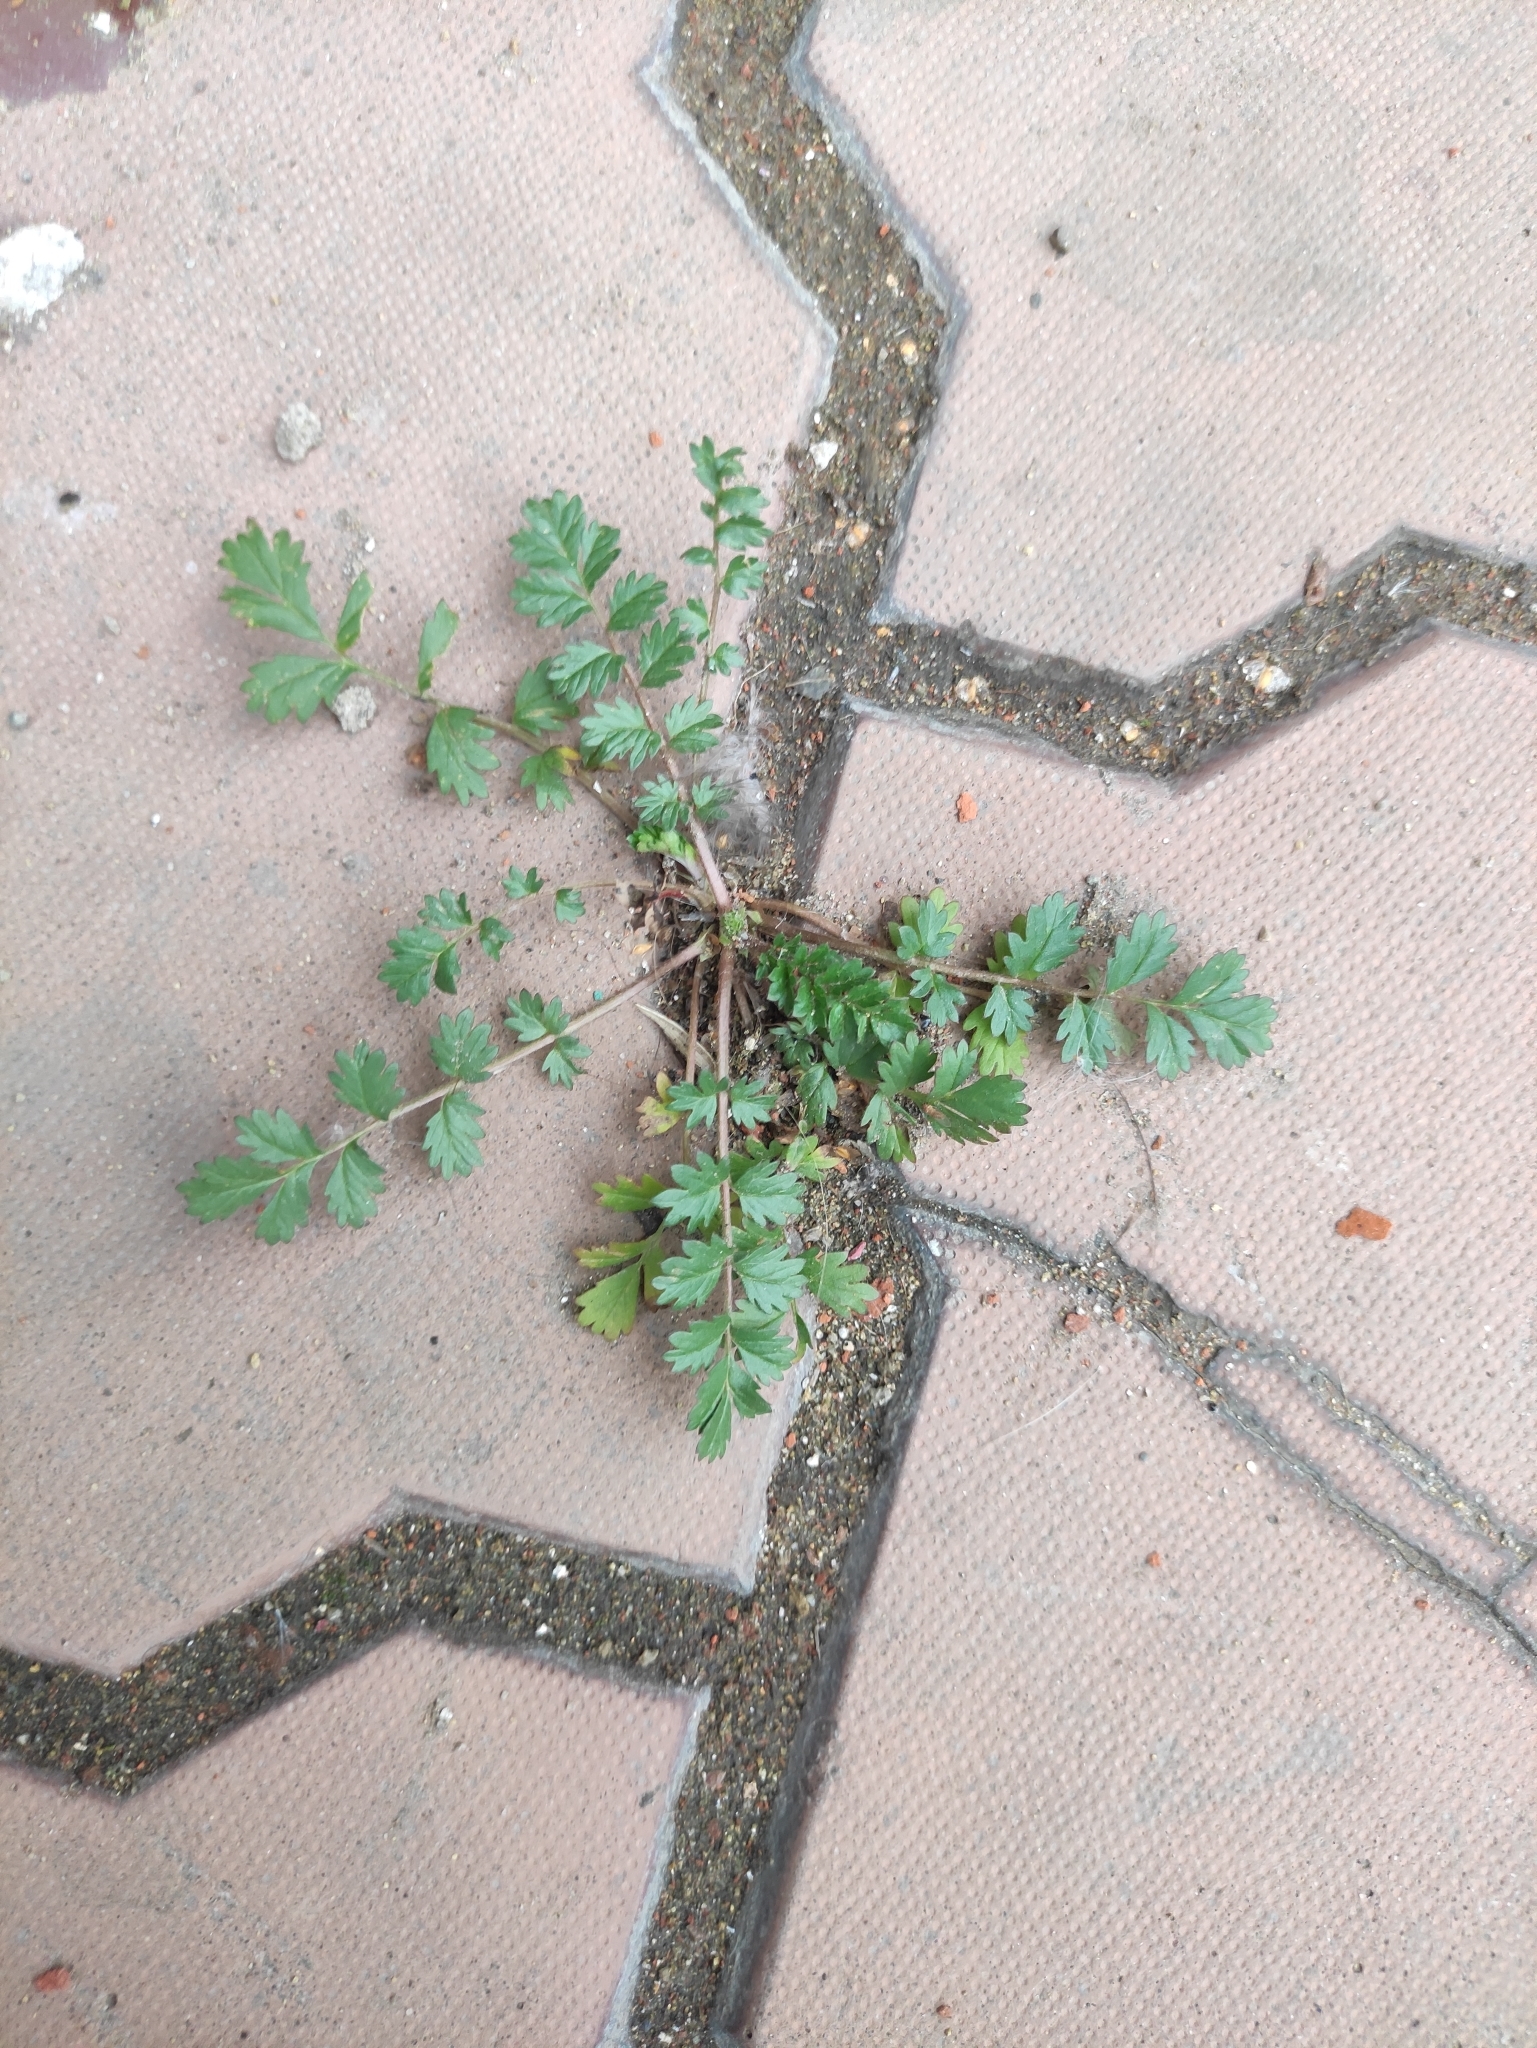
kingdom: Plantae
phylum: Tracheophyta
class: Magnoliopsida
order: Rosales
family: Rosaceae
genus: Potentilla
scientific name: Potentilla supina
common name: Prostrate cinquefoil
